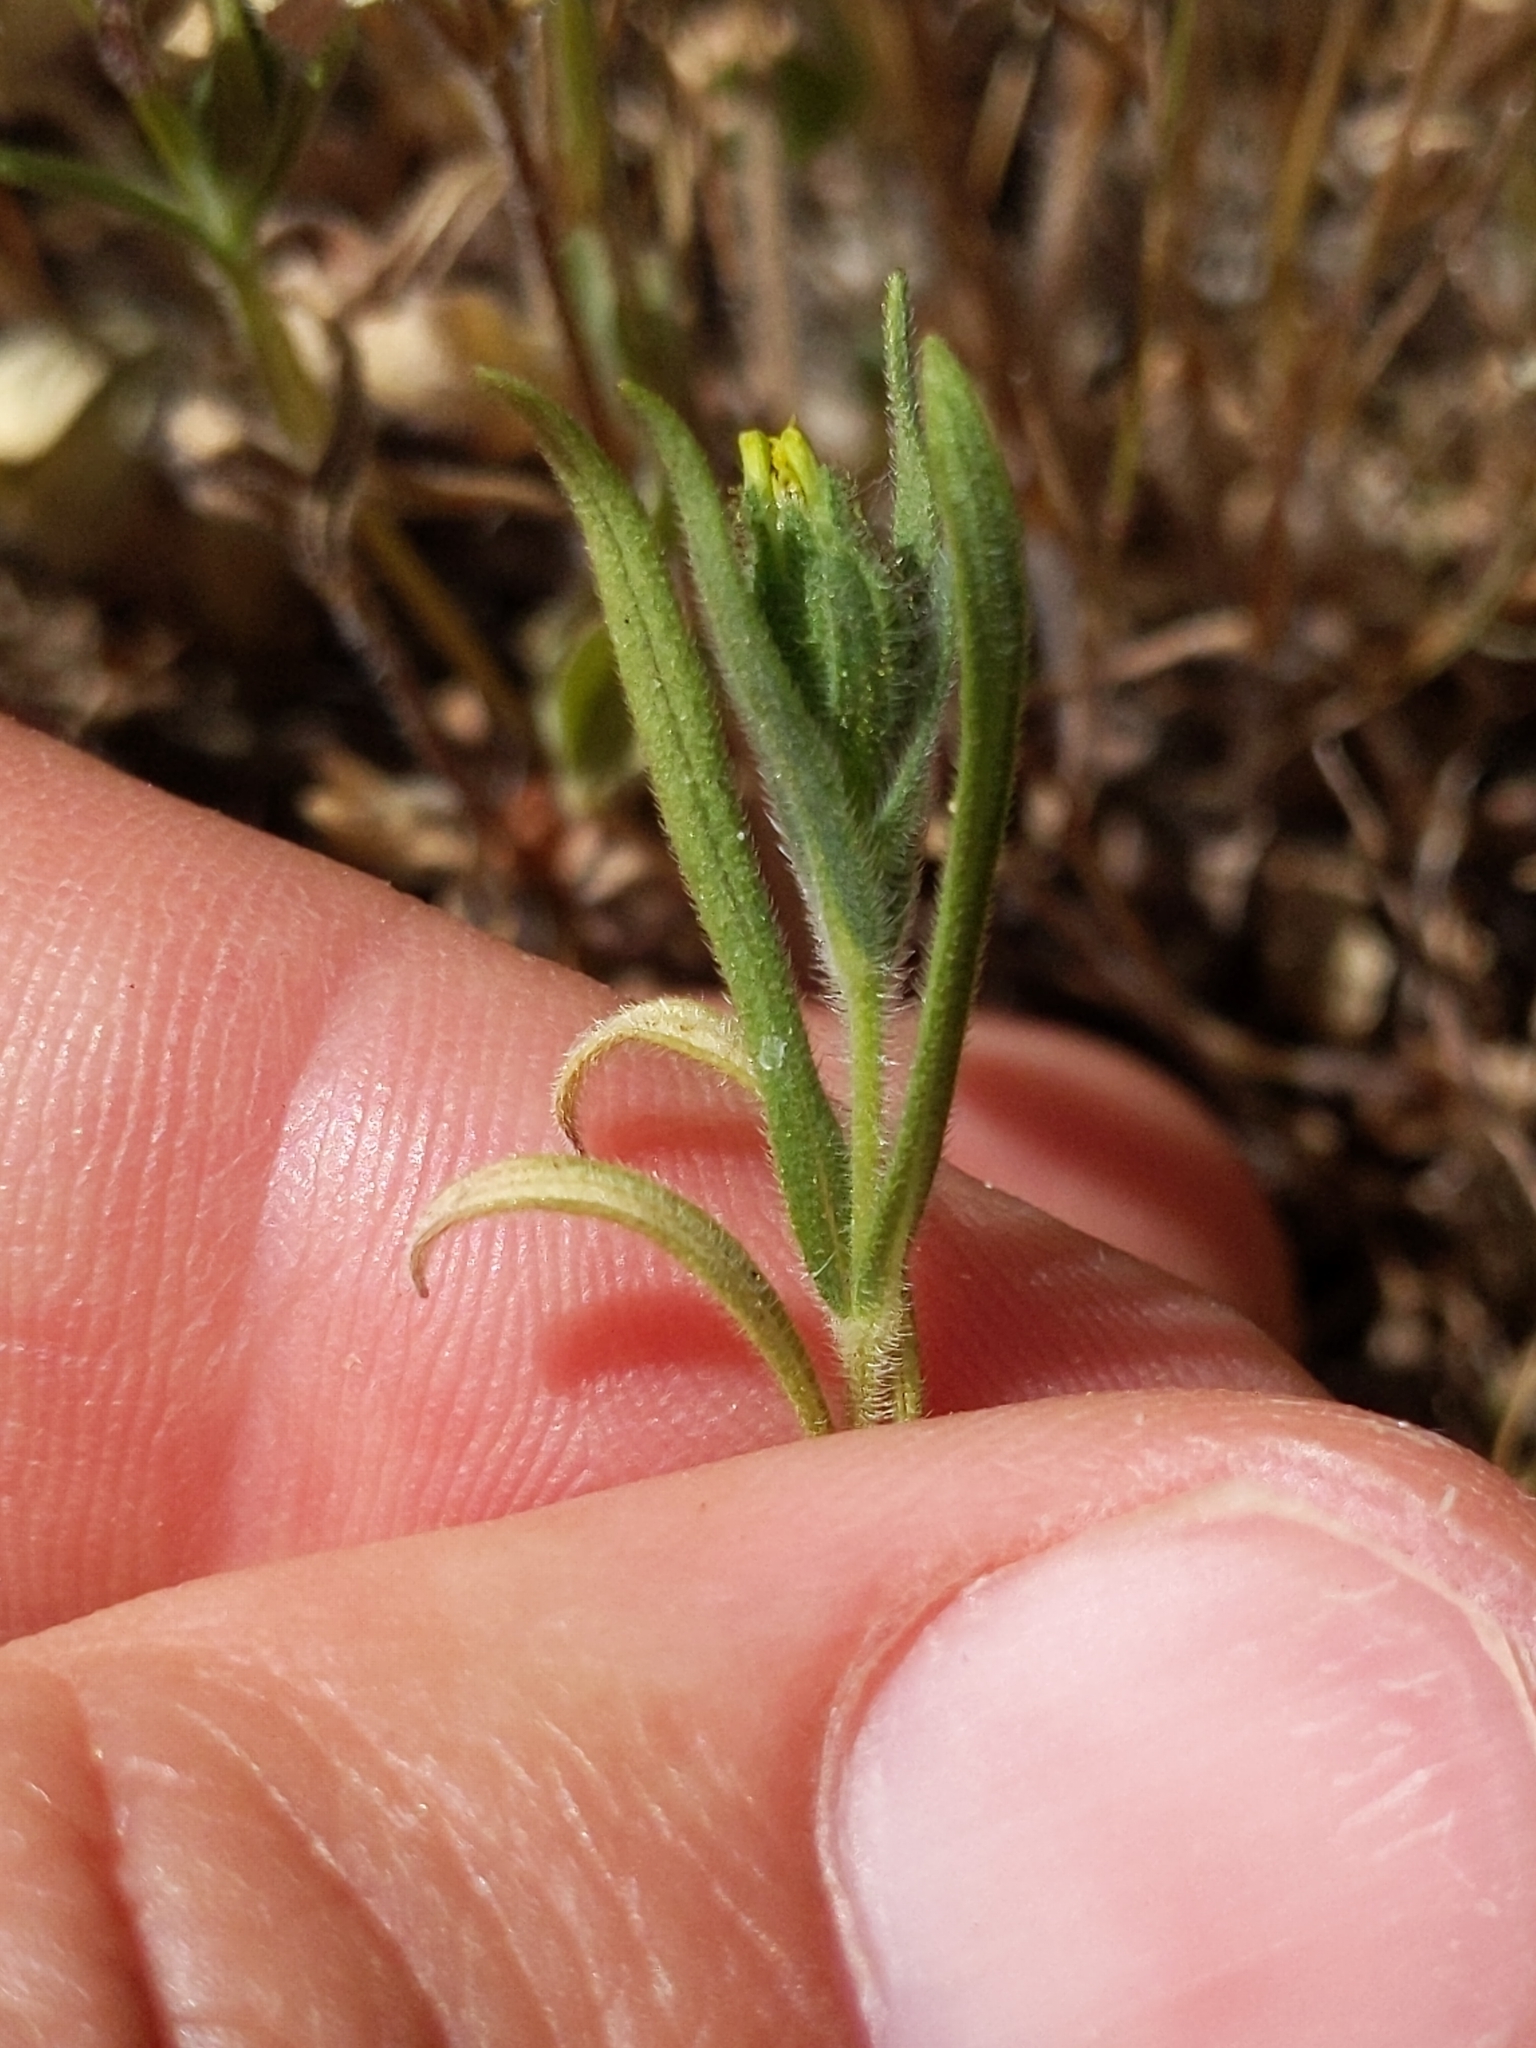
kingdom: Plantae
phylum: Tracheophyta
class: Magnoliopsida
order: Asterales
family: Asteraceae
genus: Madia
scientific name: Madia gracilis
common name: Grassy tarweed
